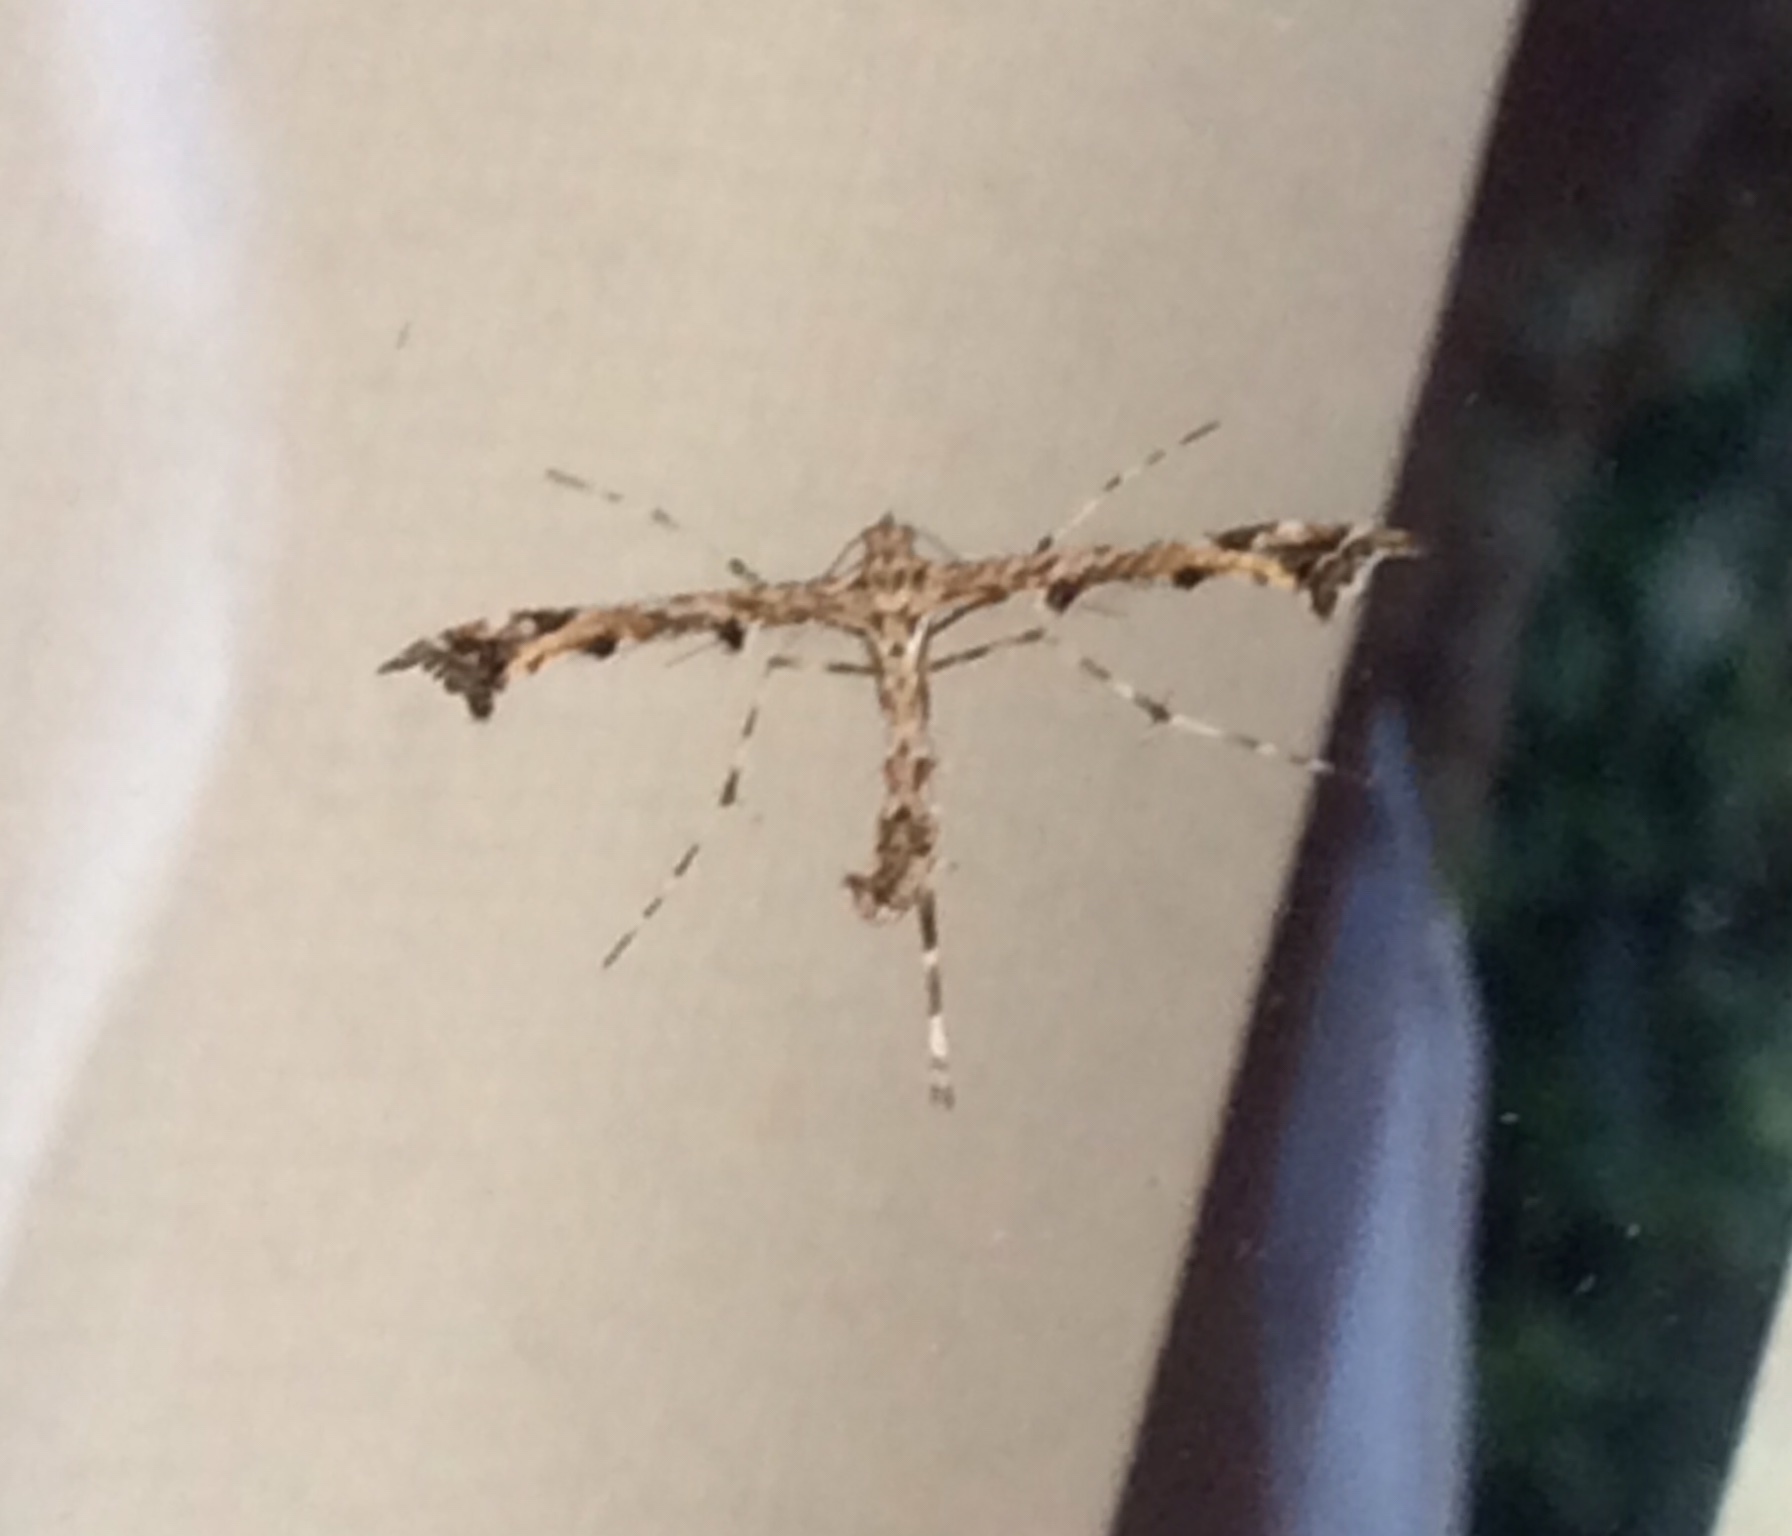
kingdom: Animalia
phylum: Arthropoda
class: Insecta
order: Lepidoptera
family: Pterophoridae
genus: Amblyptilia
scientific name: Amblyptilia acanthadactyla
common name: Beautiful plume
